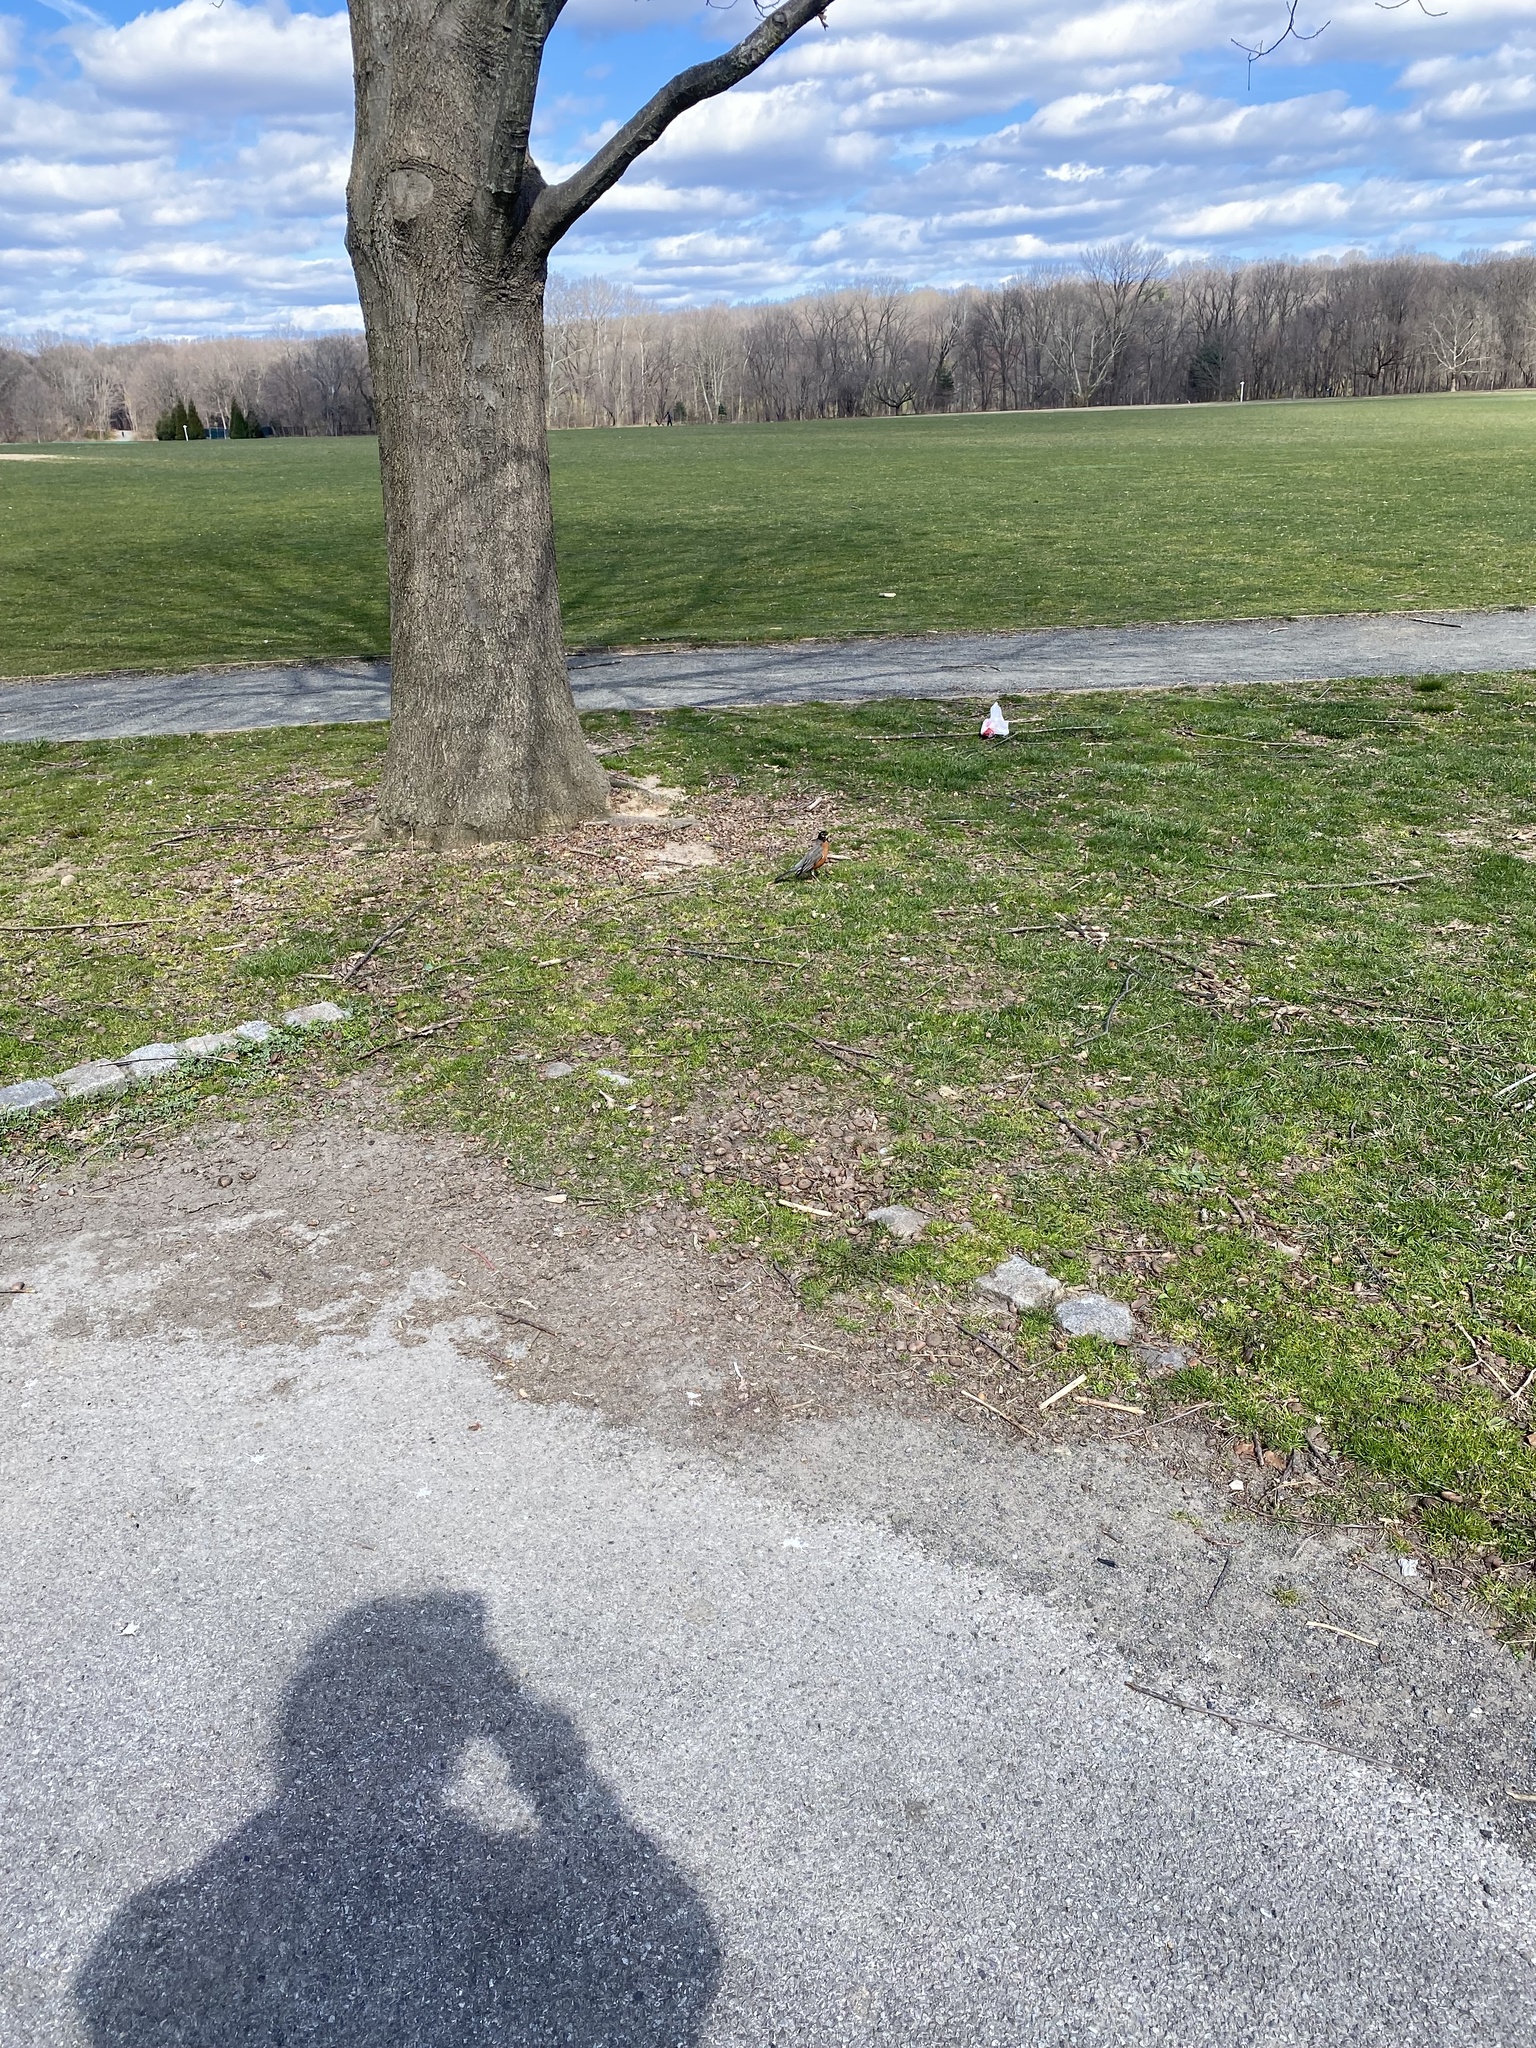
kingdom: Animalia
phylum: Chordata
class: Aves
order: Passeriformes
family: Turdidae
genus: Turdus
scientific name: Turdus migratorius
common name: American robin
